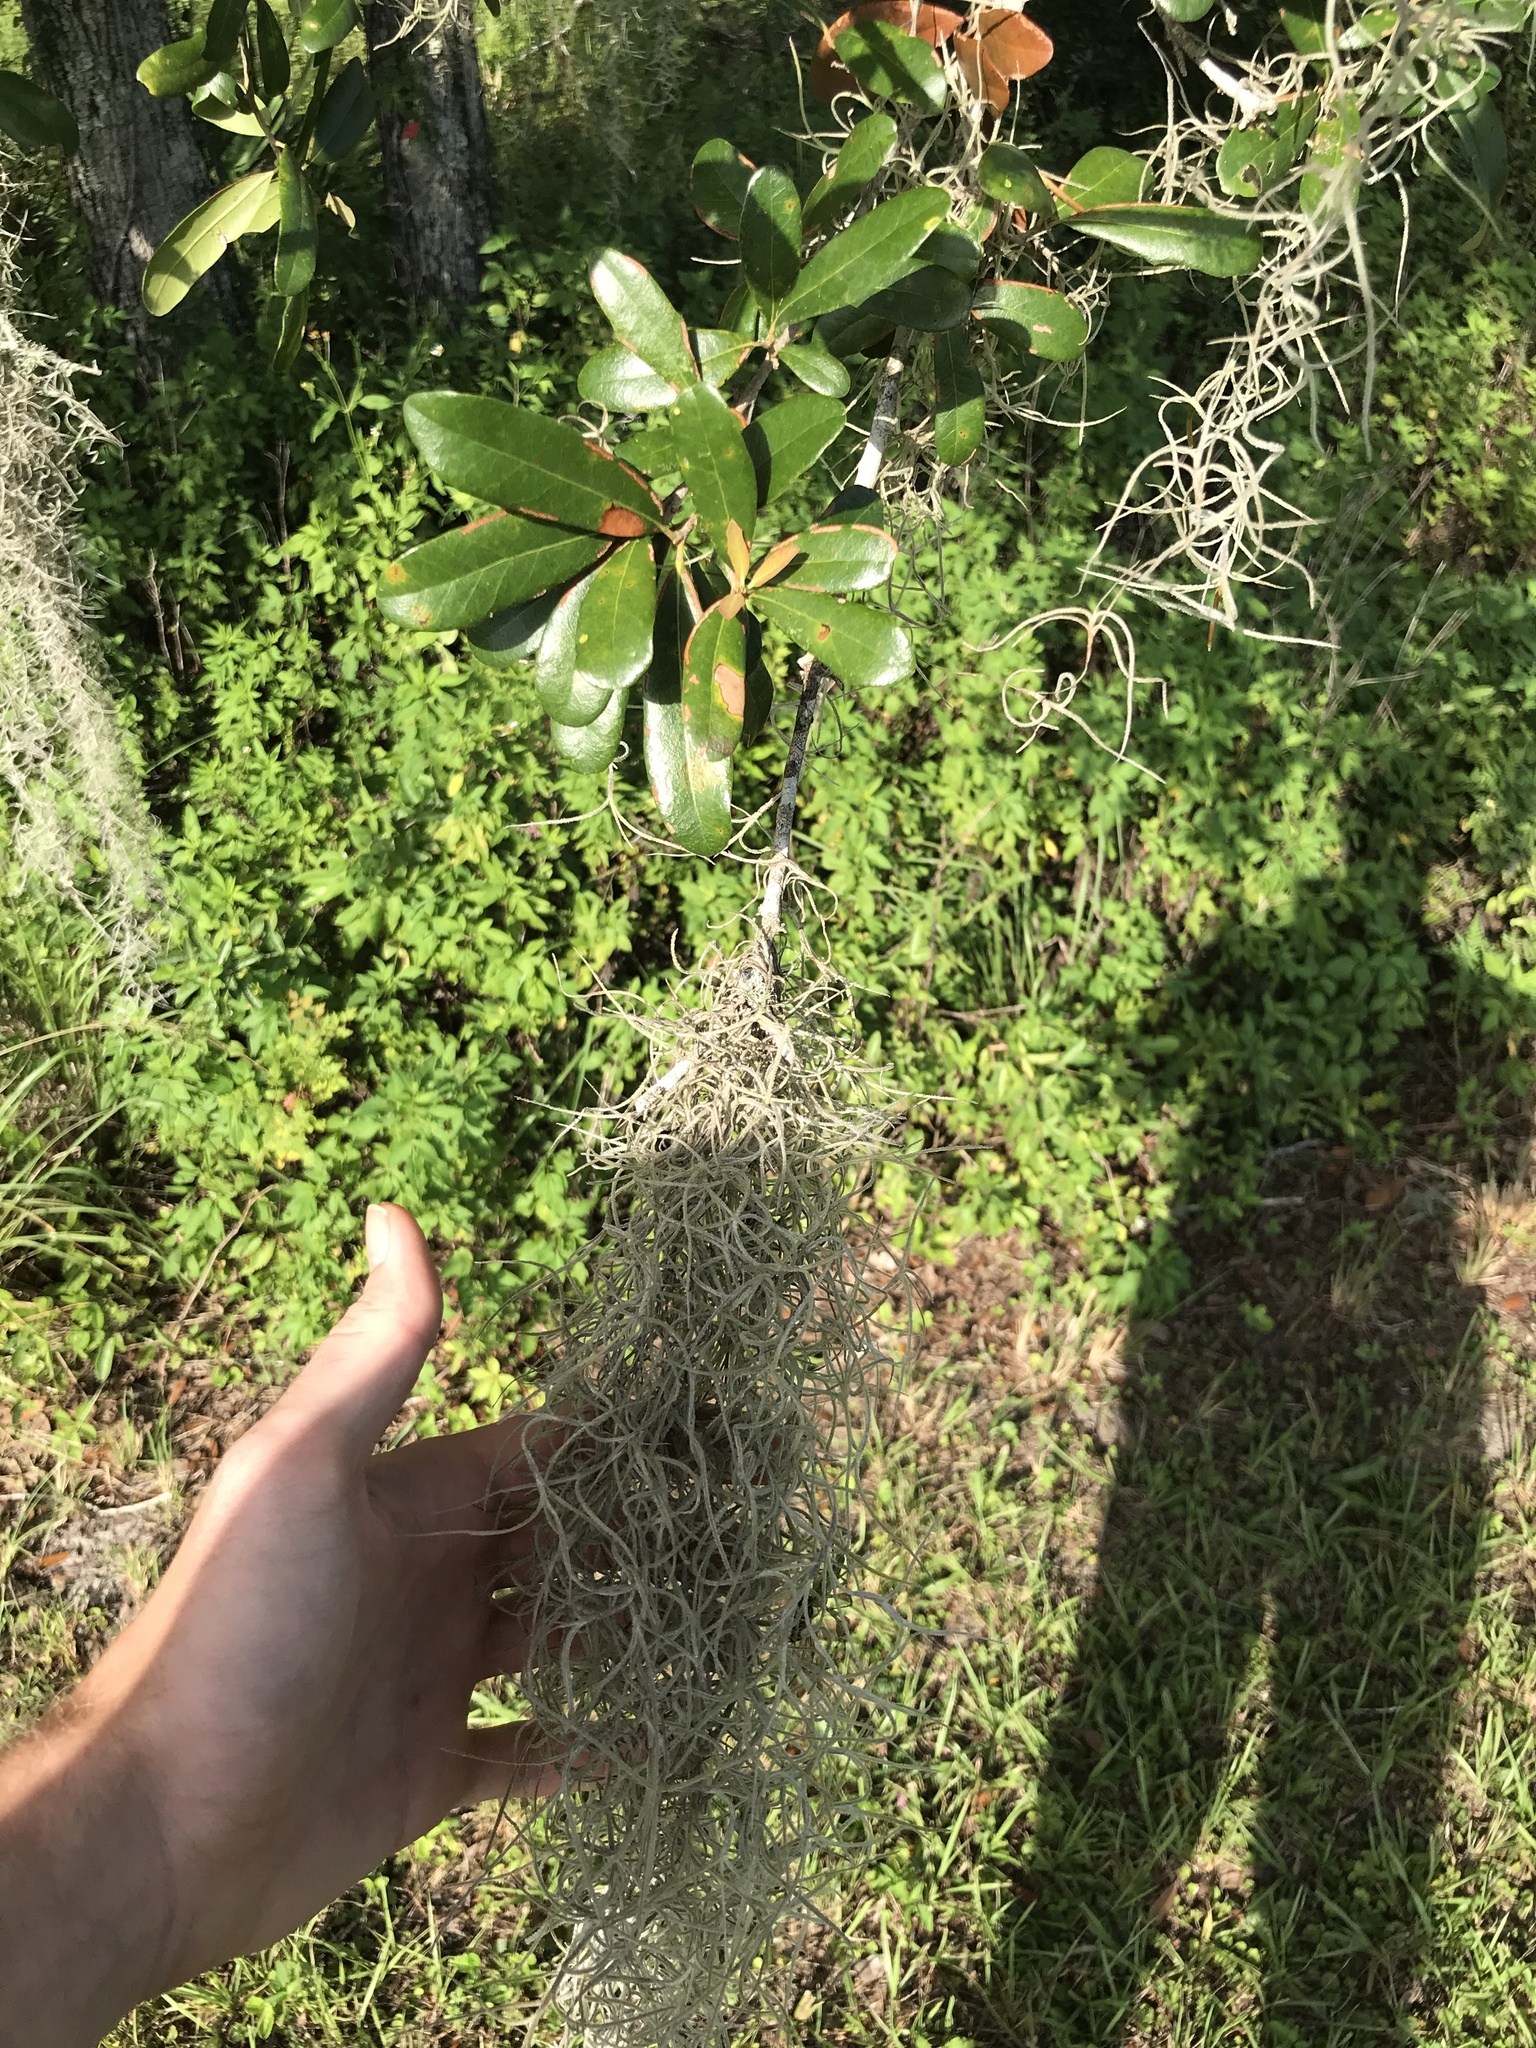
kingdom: Plantae
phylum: Tracheophyta
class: Liliopsida
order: Poales
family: Bromeliaceae
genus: Tillandsia
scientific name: Tillandsia usneoides
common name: Spanish moss
